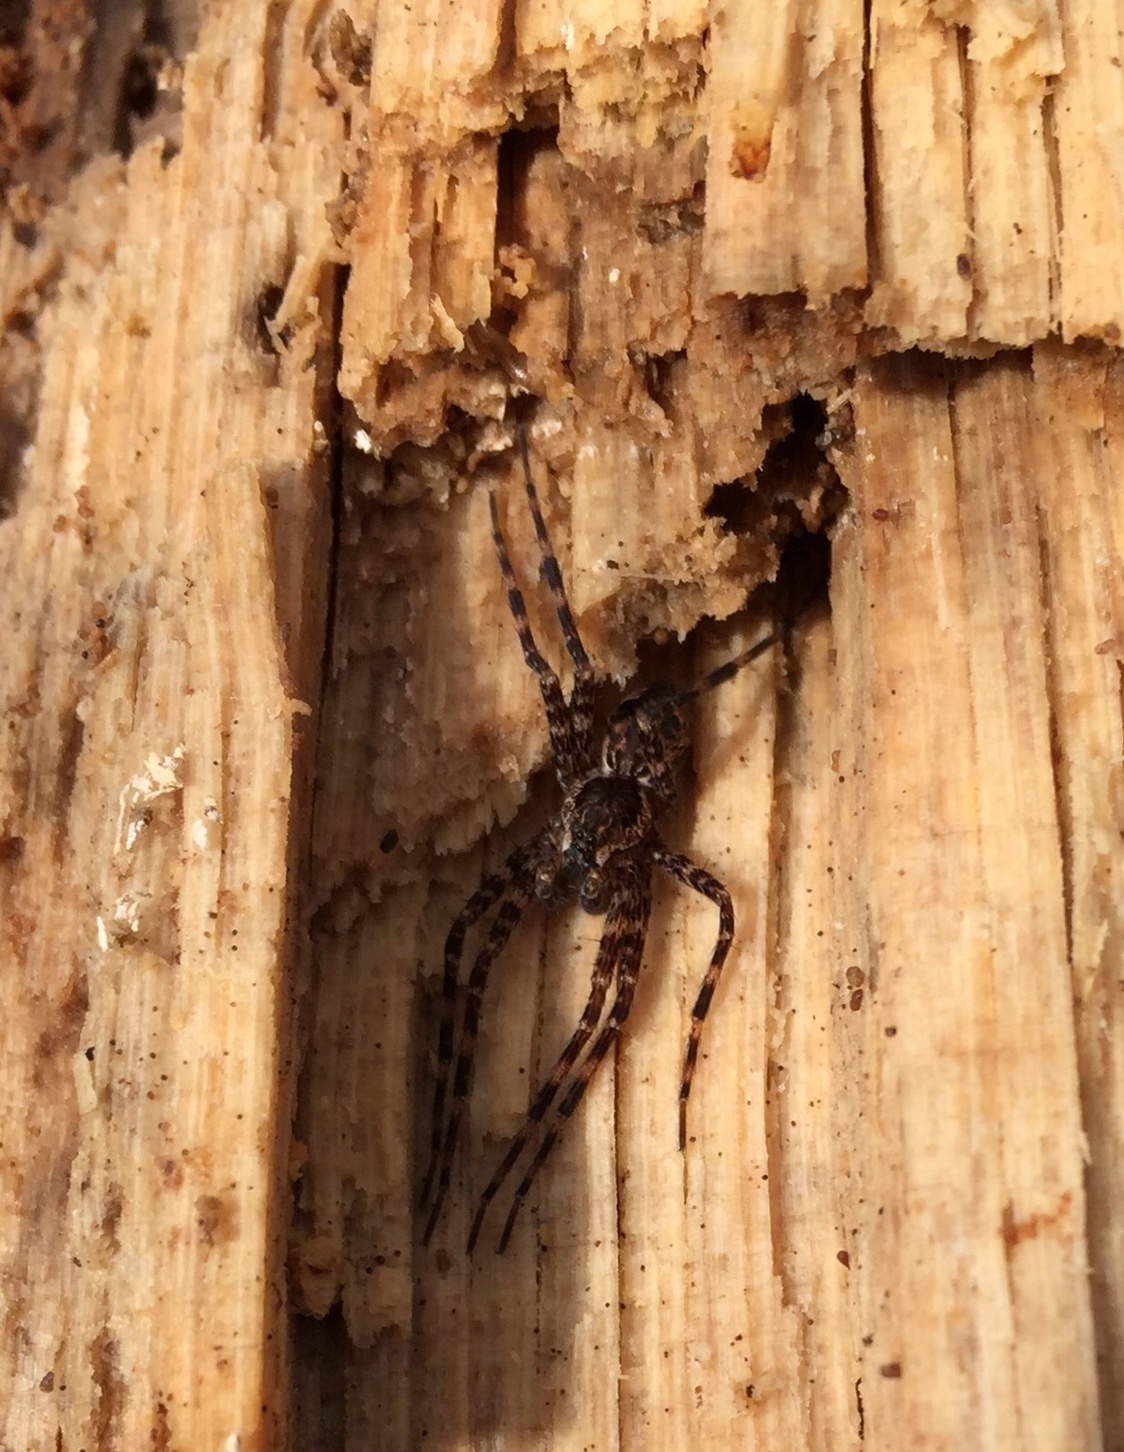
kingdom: Animalia
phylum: Arthropoda
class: Arachnida
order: Araneae
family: Pisauridae
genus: Dolomedes
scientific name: Dolomedes tenebrosus
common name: Dark fishing spider
